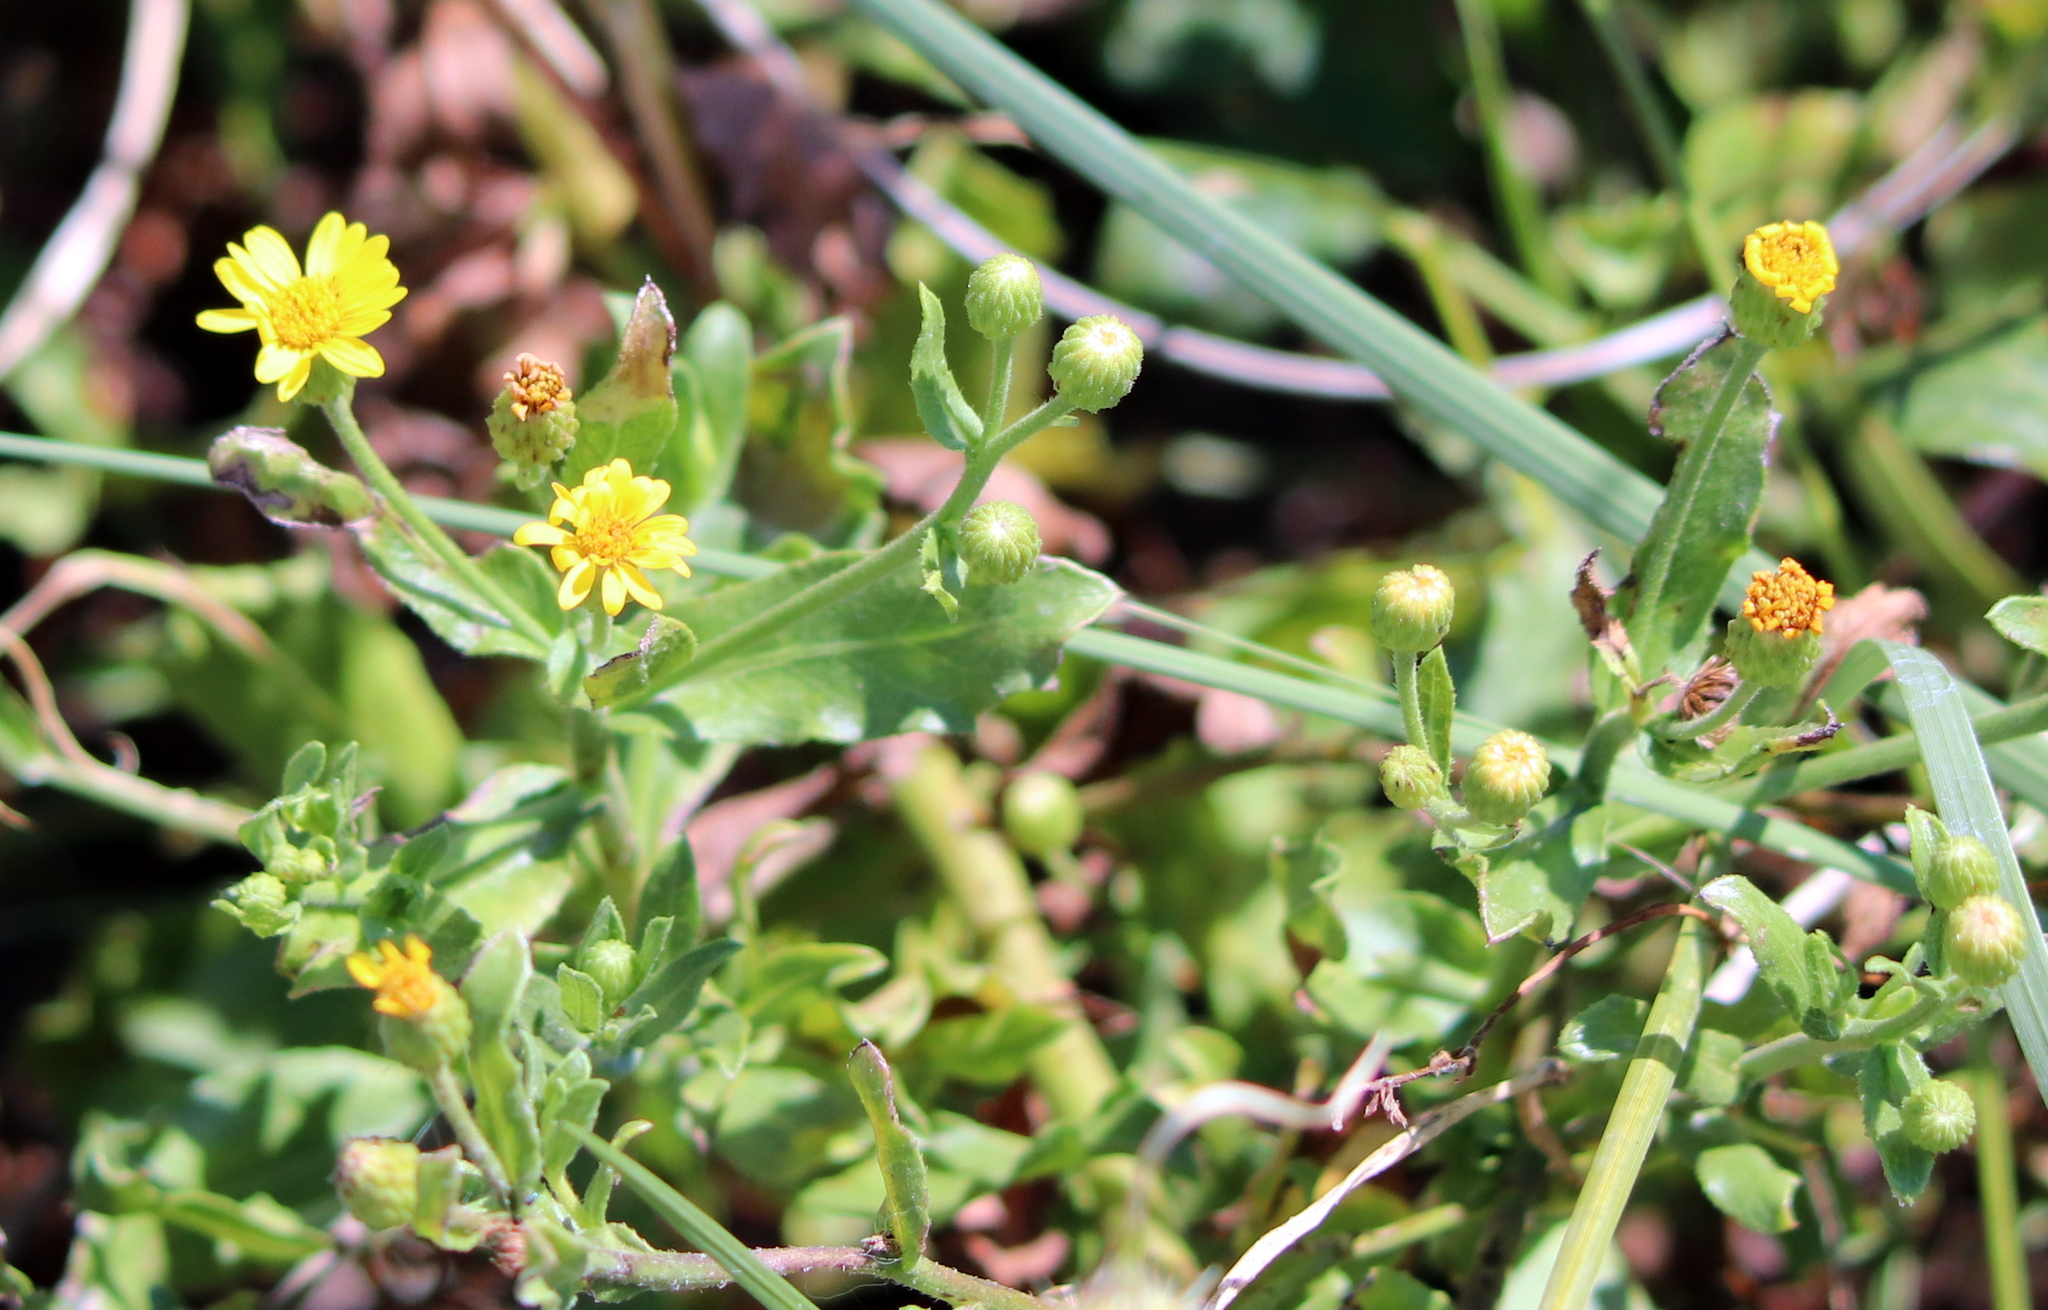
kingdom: Plantae
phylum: Tracheophyta
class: Magnoliopsida
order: Asterales
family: Asteraceae
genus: Heterotheca
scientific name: Heterotheca subaxillaris
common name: Camphorweed
